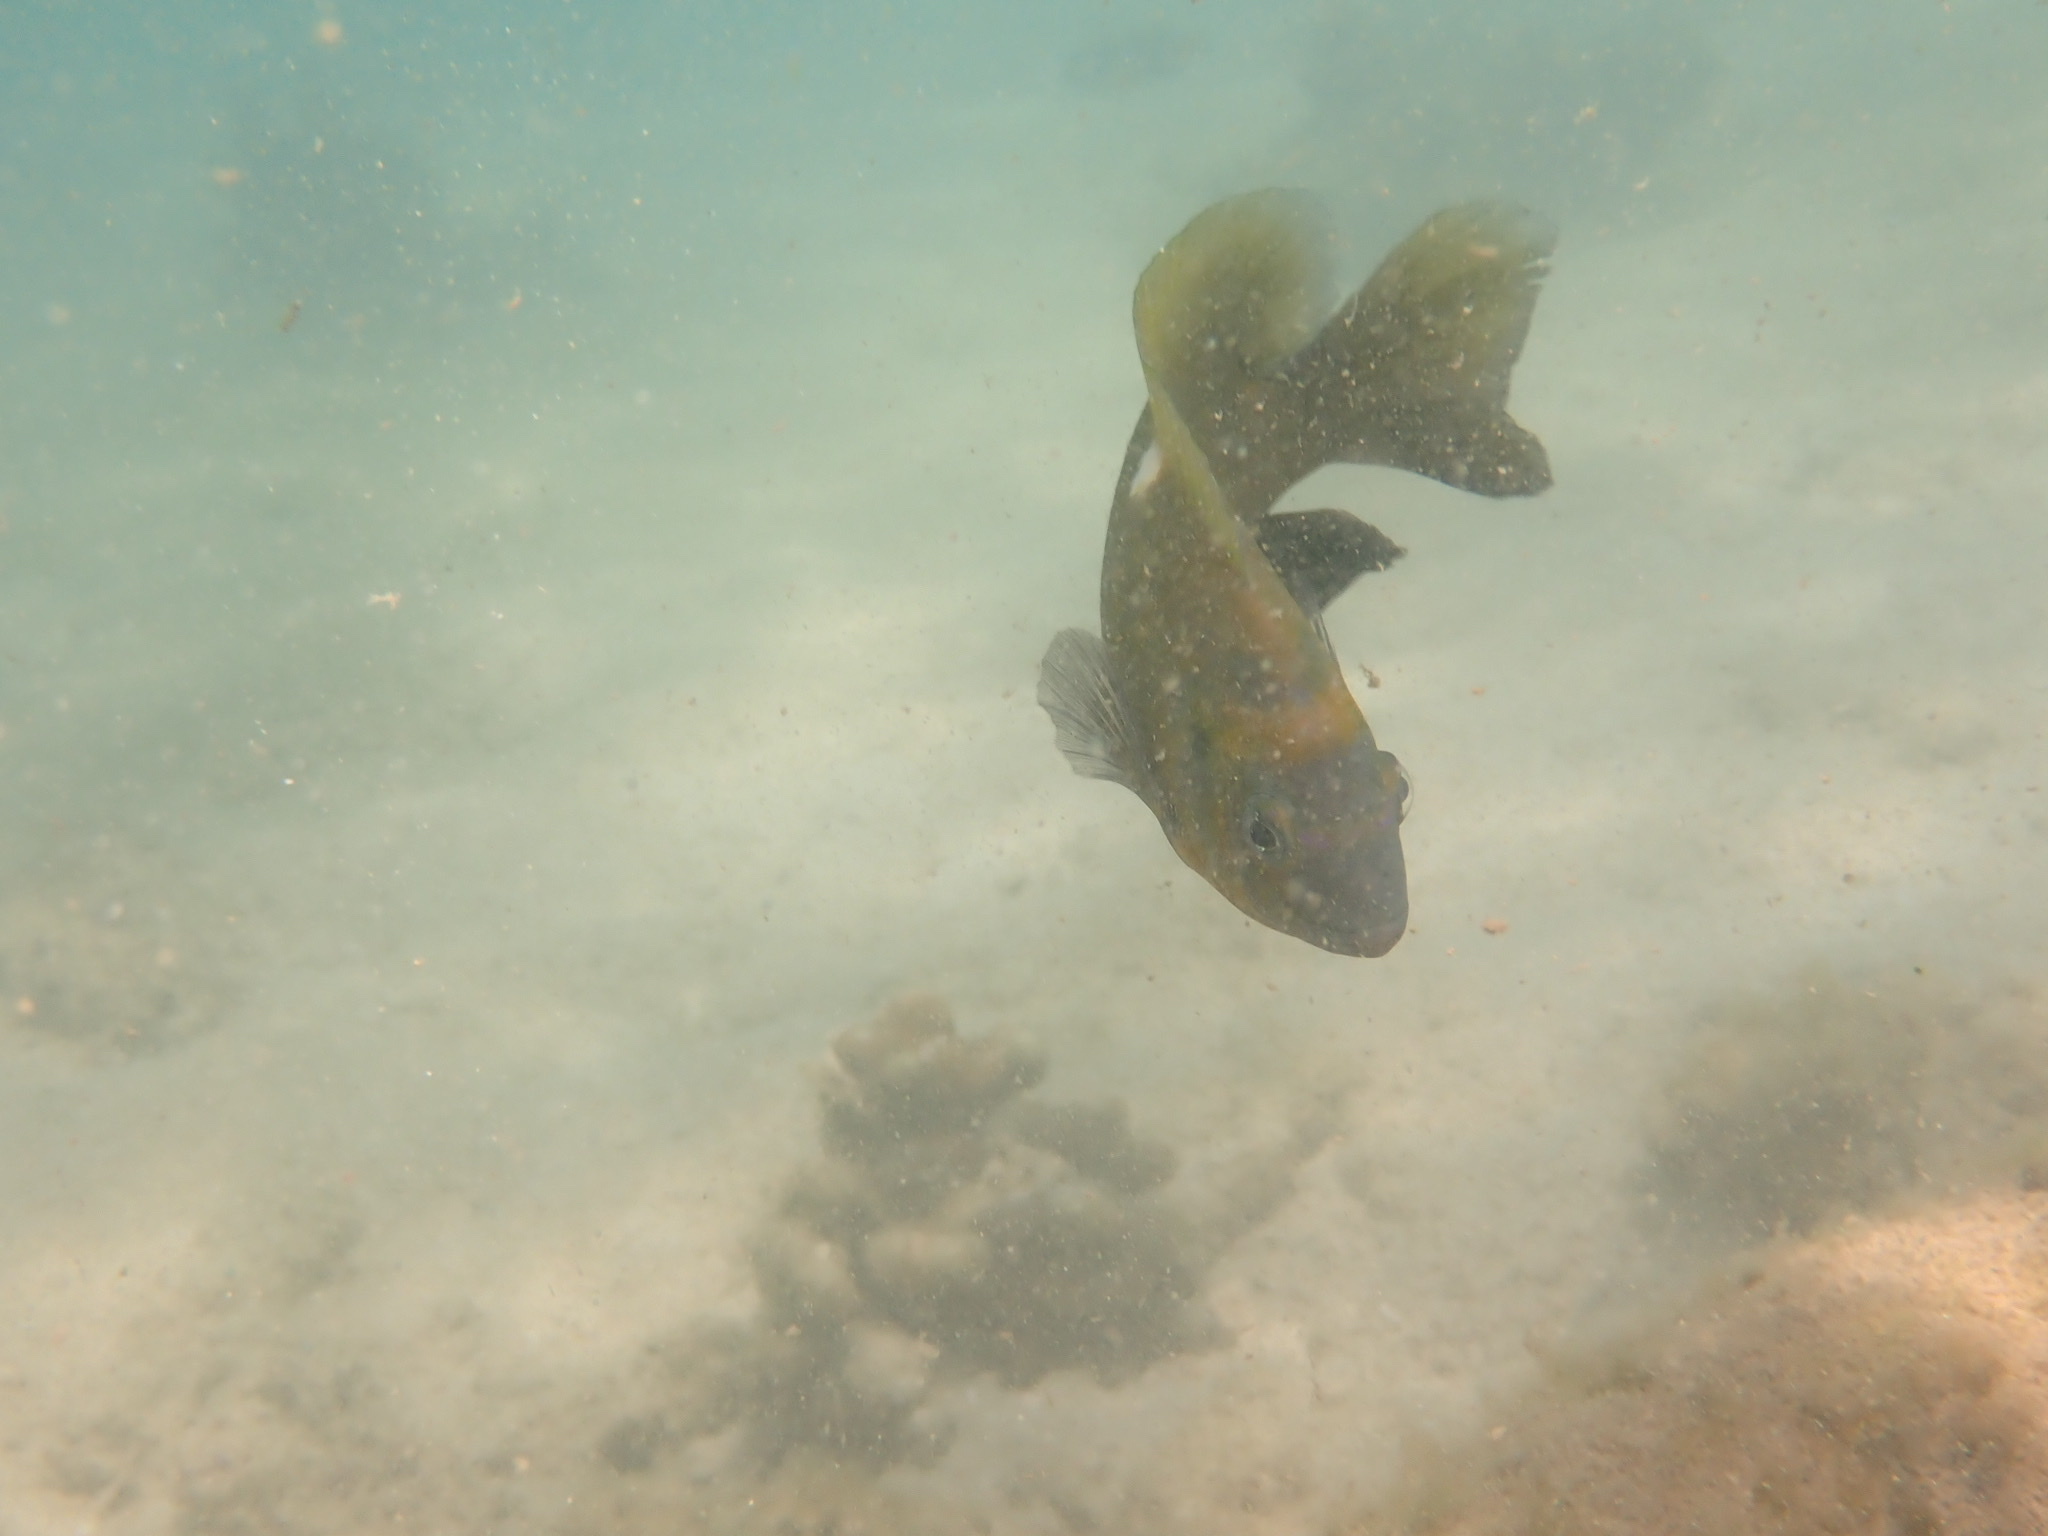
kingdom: Animalia
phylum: Chordata
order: Perciformes
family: Pomacentridae
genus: Dischistodus
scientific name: Dischistodus chrysopoecilus
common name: White-spot damsel
